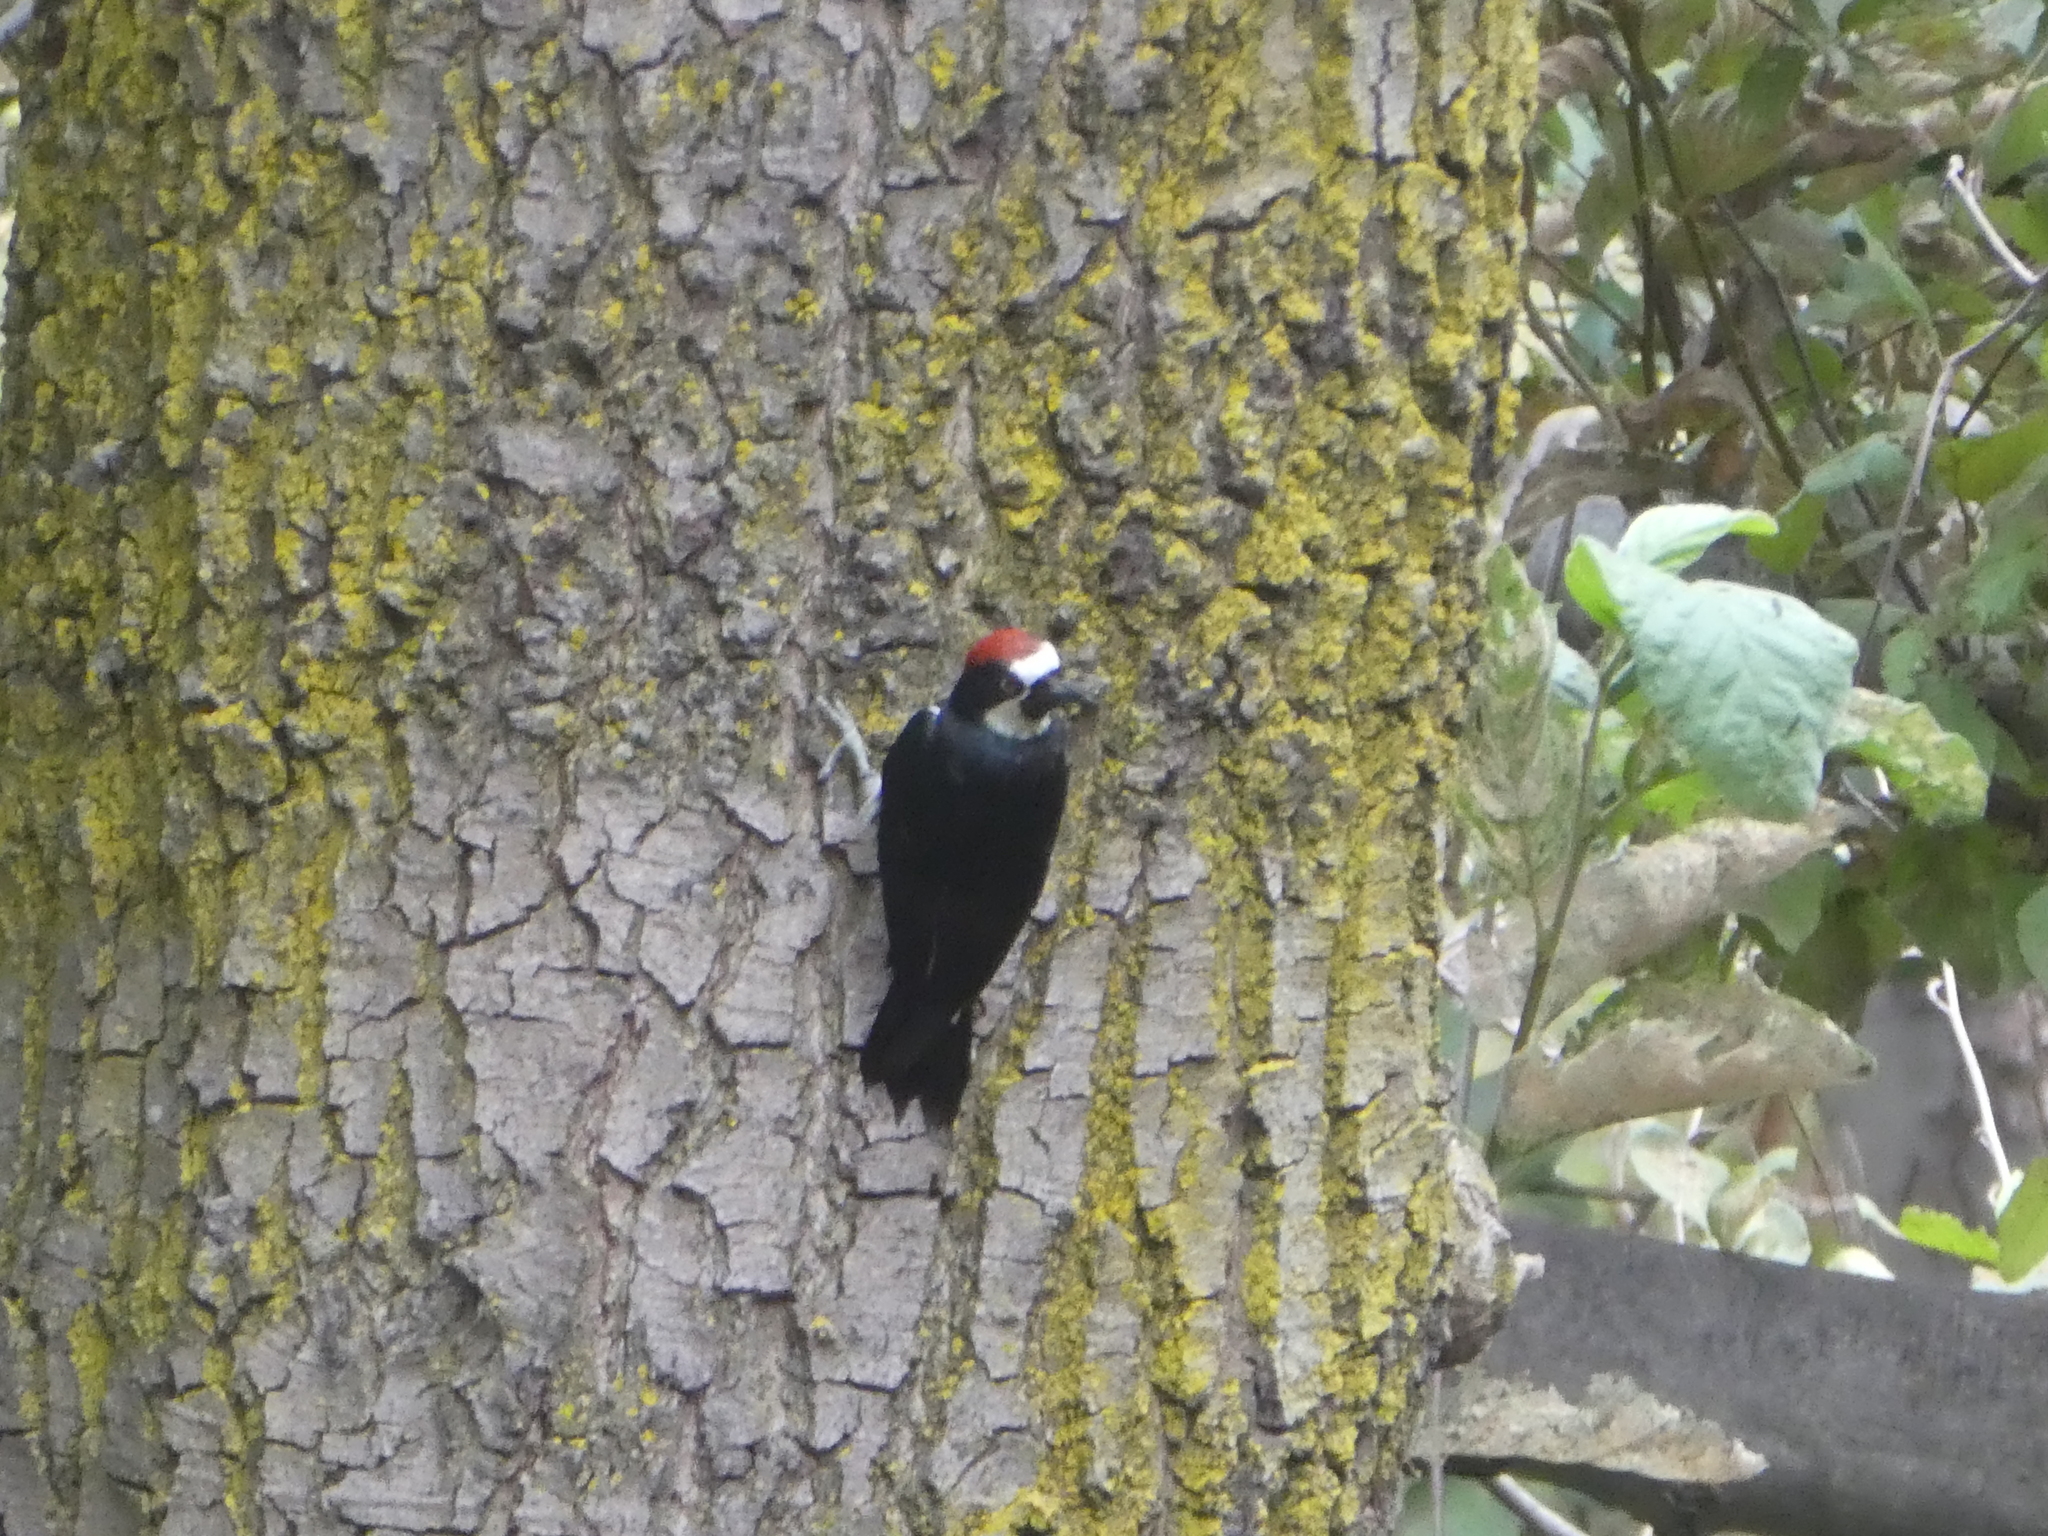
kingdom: Animalia
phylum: Chordata
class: Aves
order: Piciformes
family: Picidae
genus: Melanerpes
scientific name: Melanerpes formicivorus
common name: Acorn woodpecker
